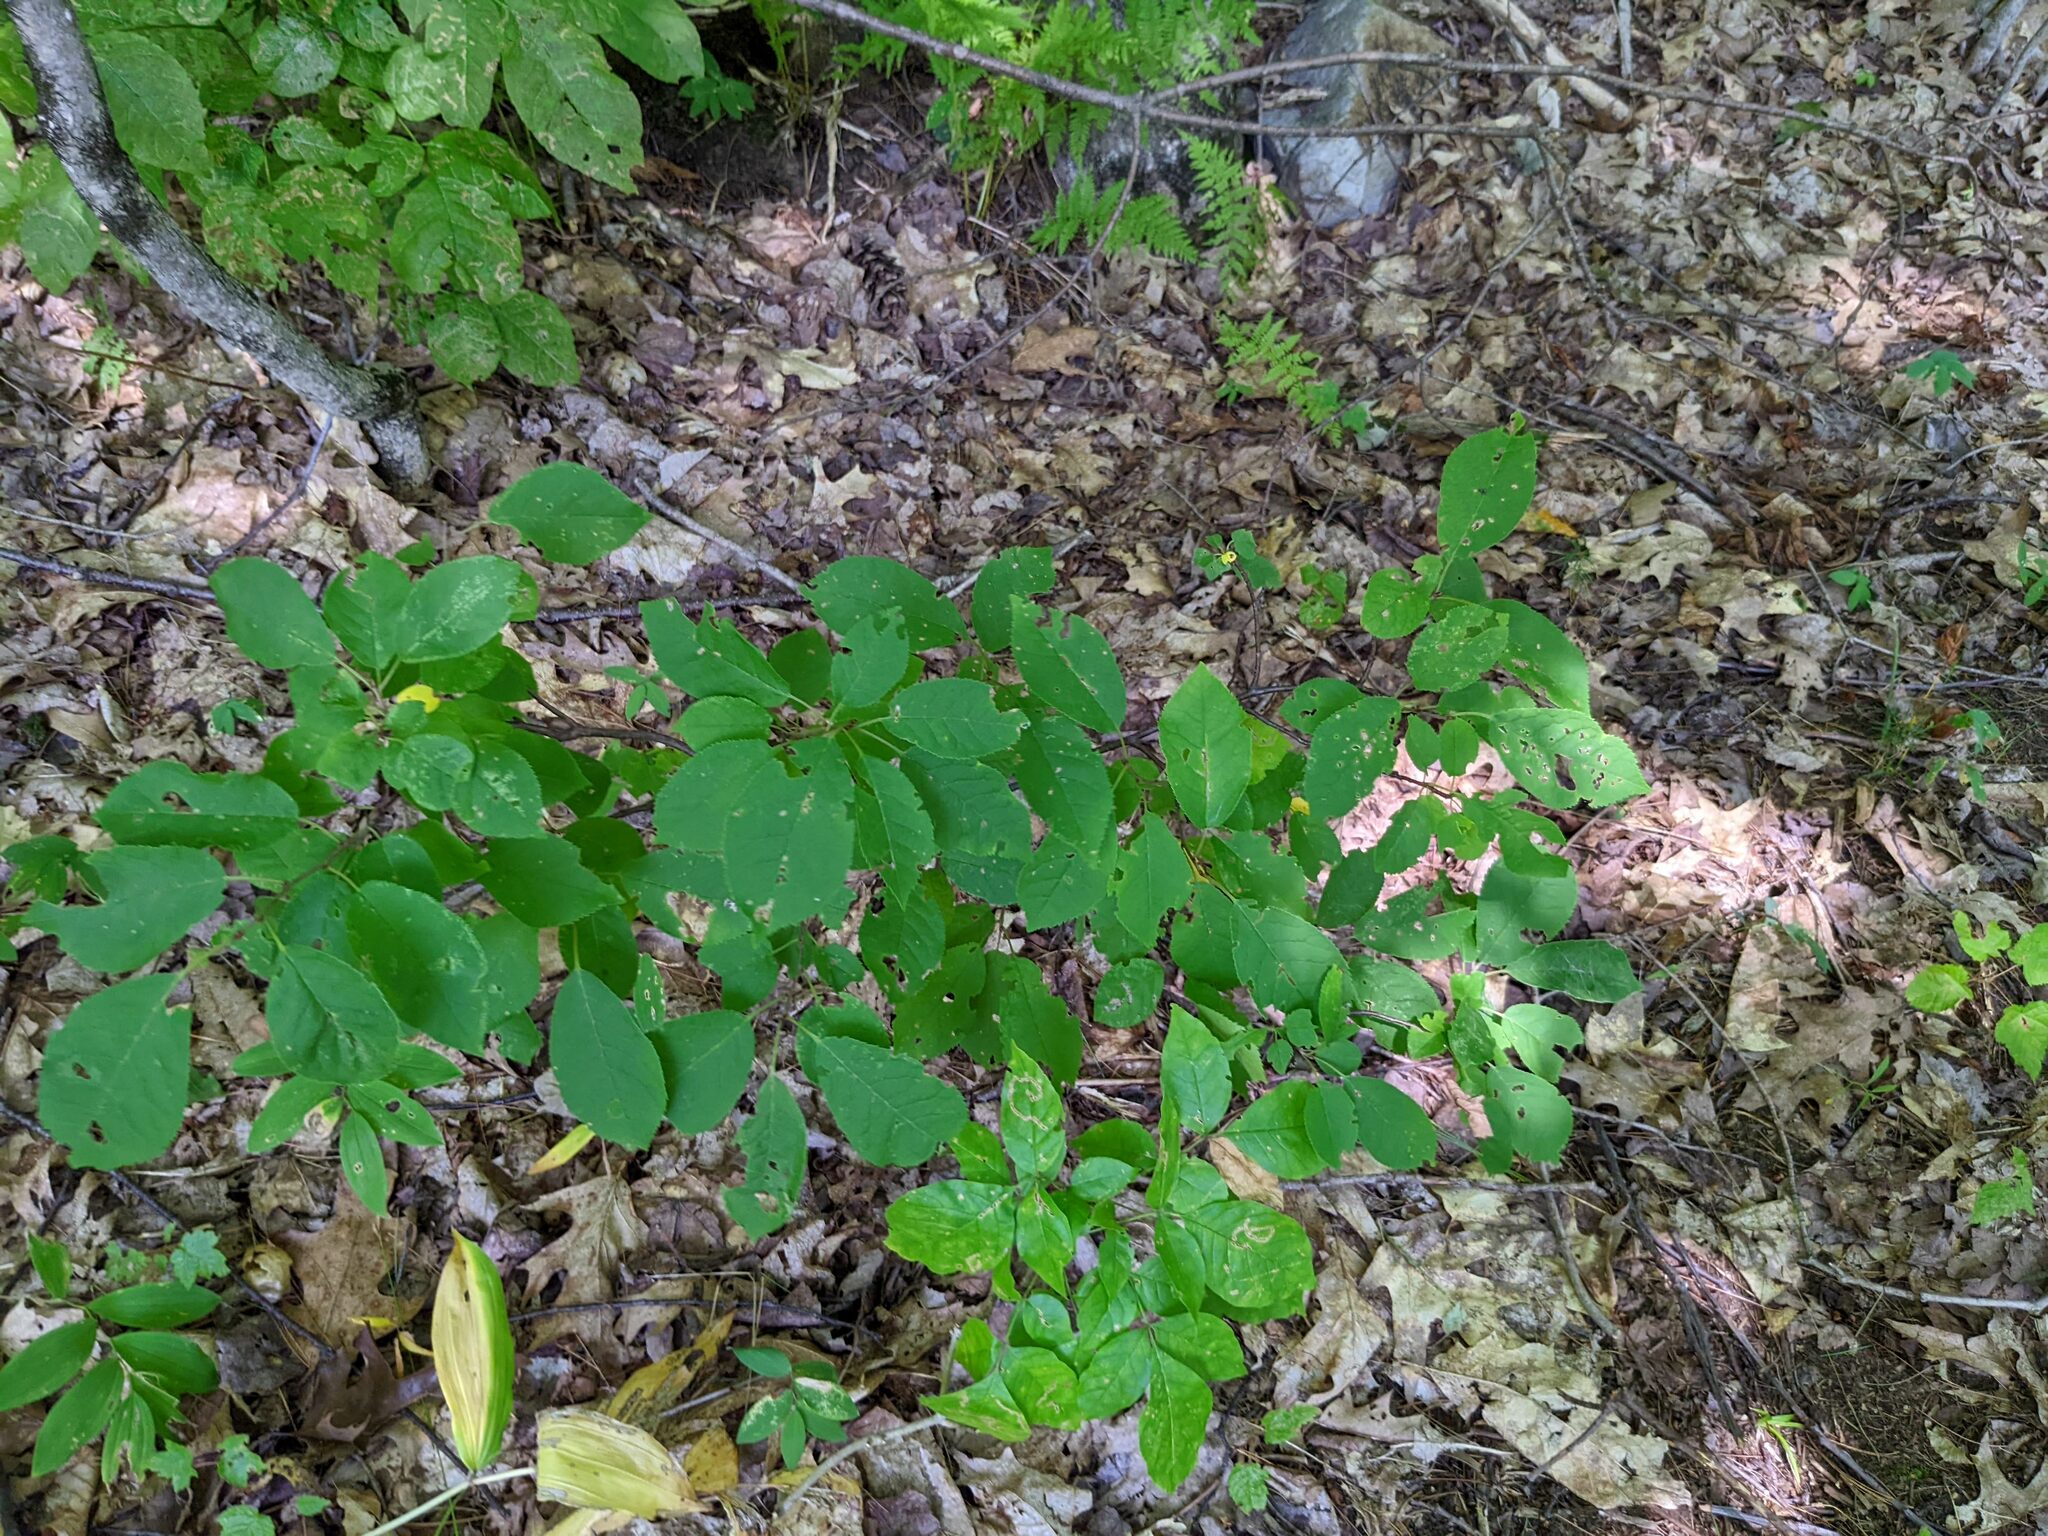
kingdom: Plantae
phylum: Tracheophyta
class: Magnoliopsida
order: Rosales
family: Rosaceae
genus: Prunus
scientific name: Prunus virginiana
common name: Chokecherry
